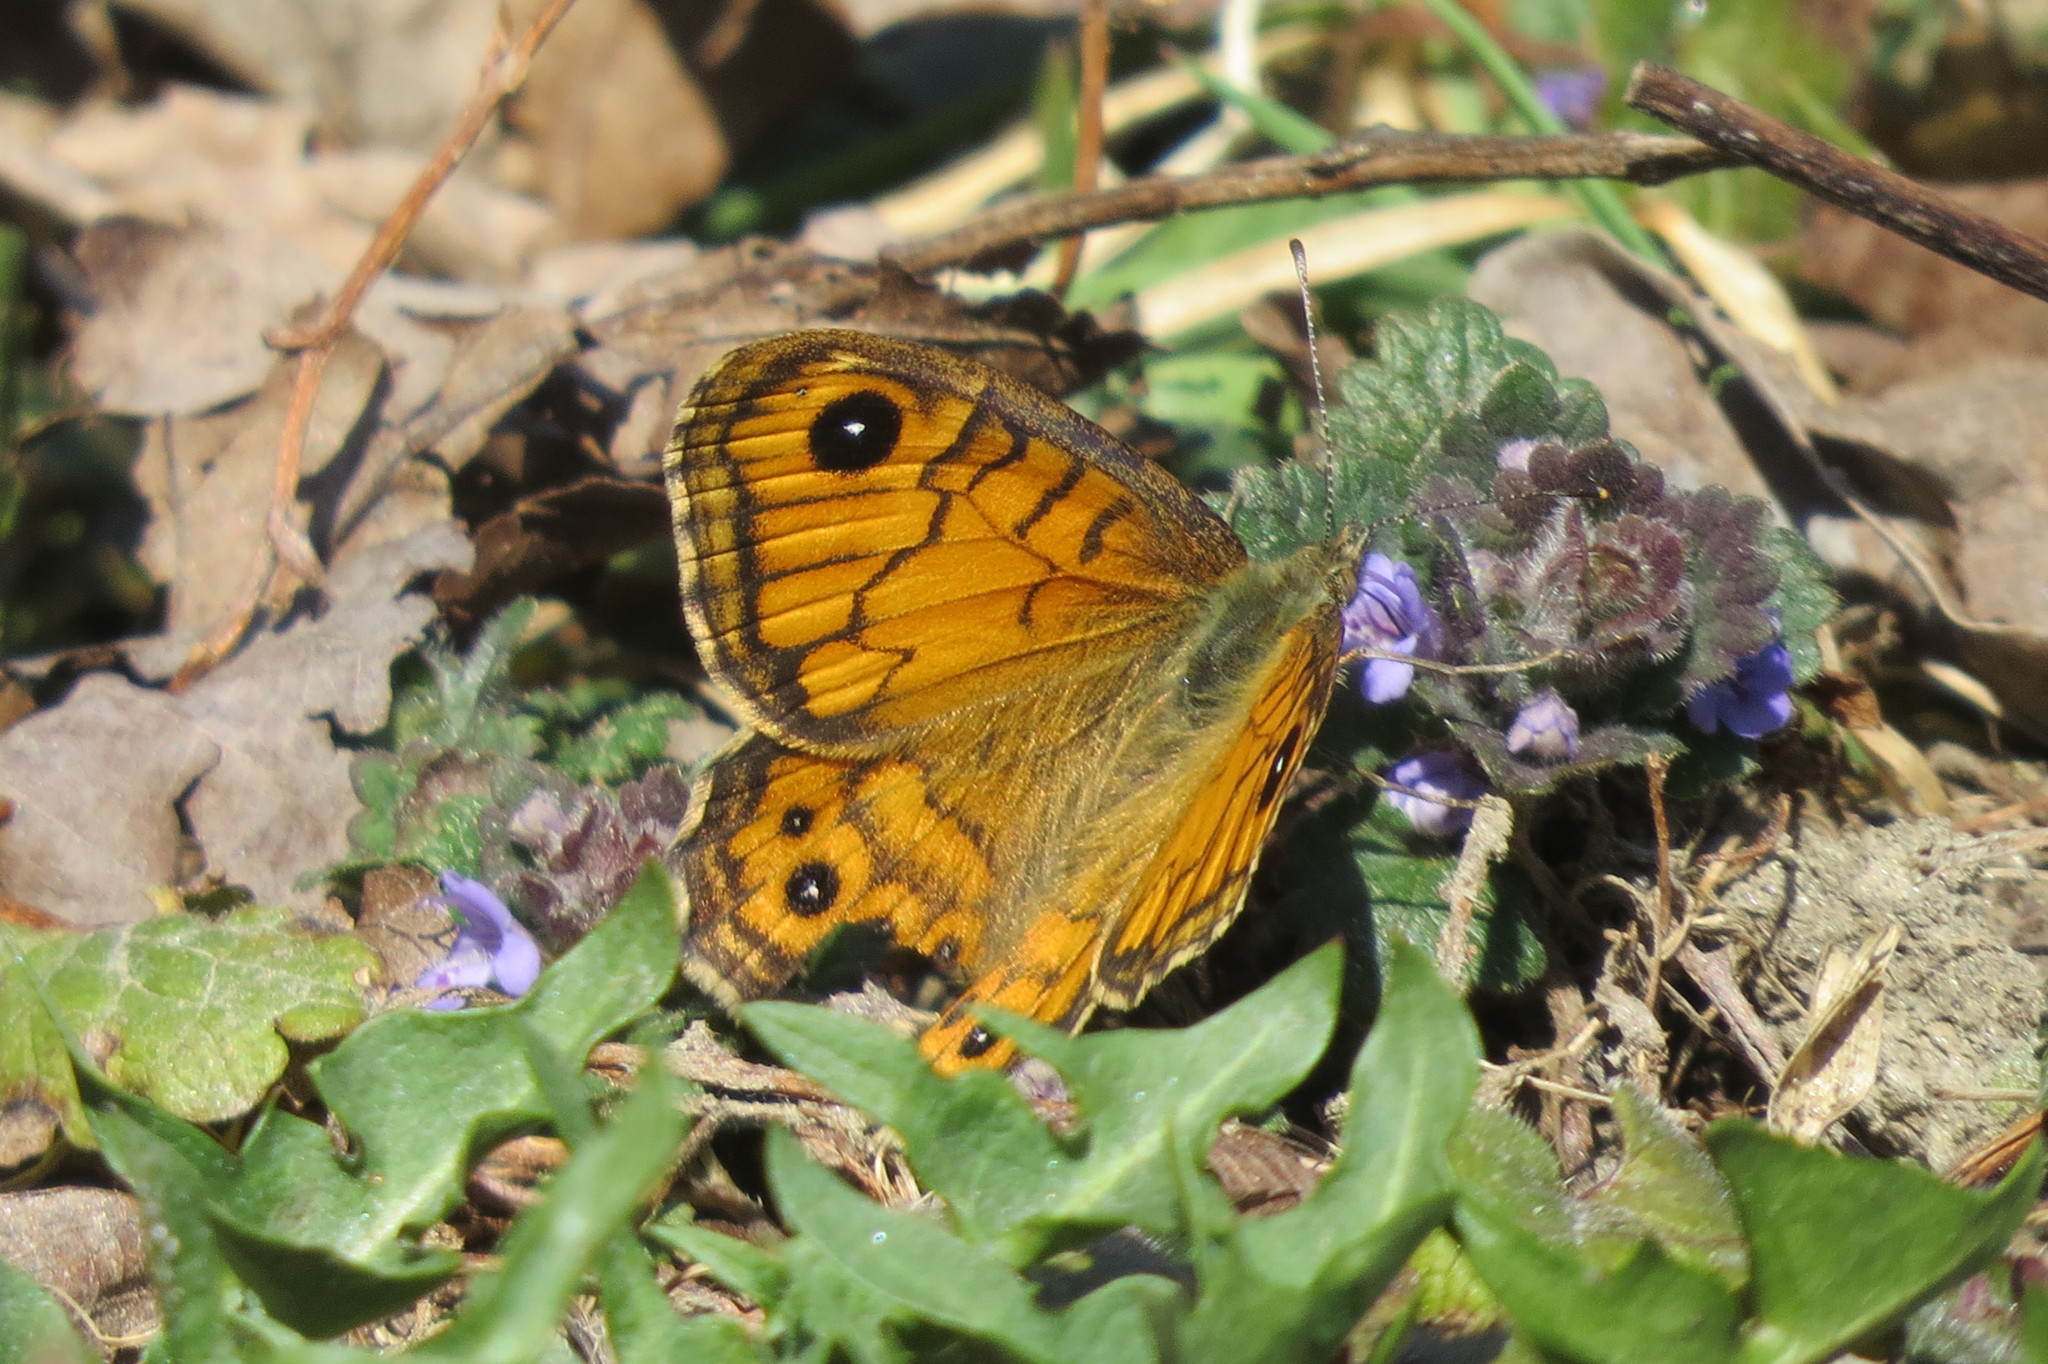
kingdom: Animalia
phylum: Arthropoda
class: Insecta
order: Lepidoptera
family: Nymphalidae
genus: Pararge
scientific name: Pararge Lasiommata megera
